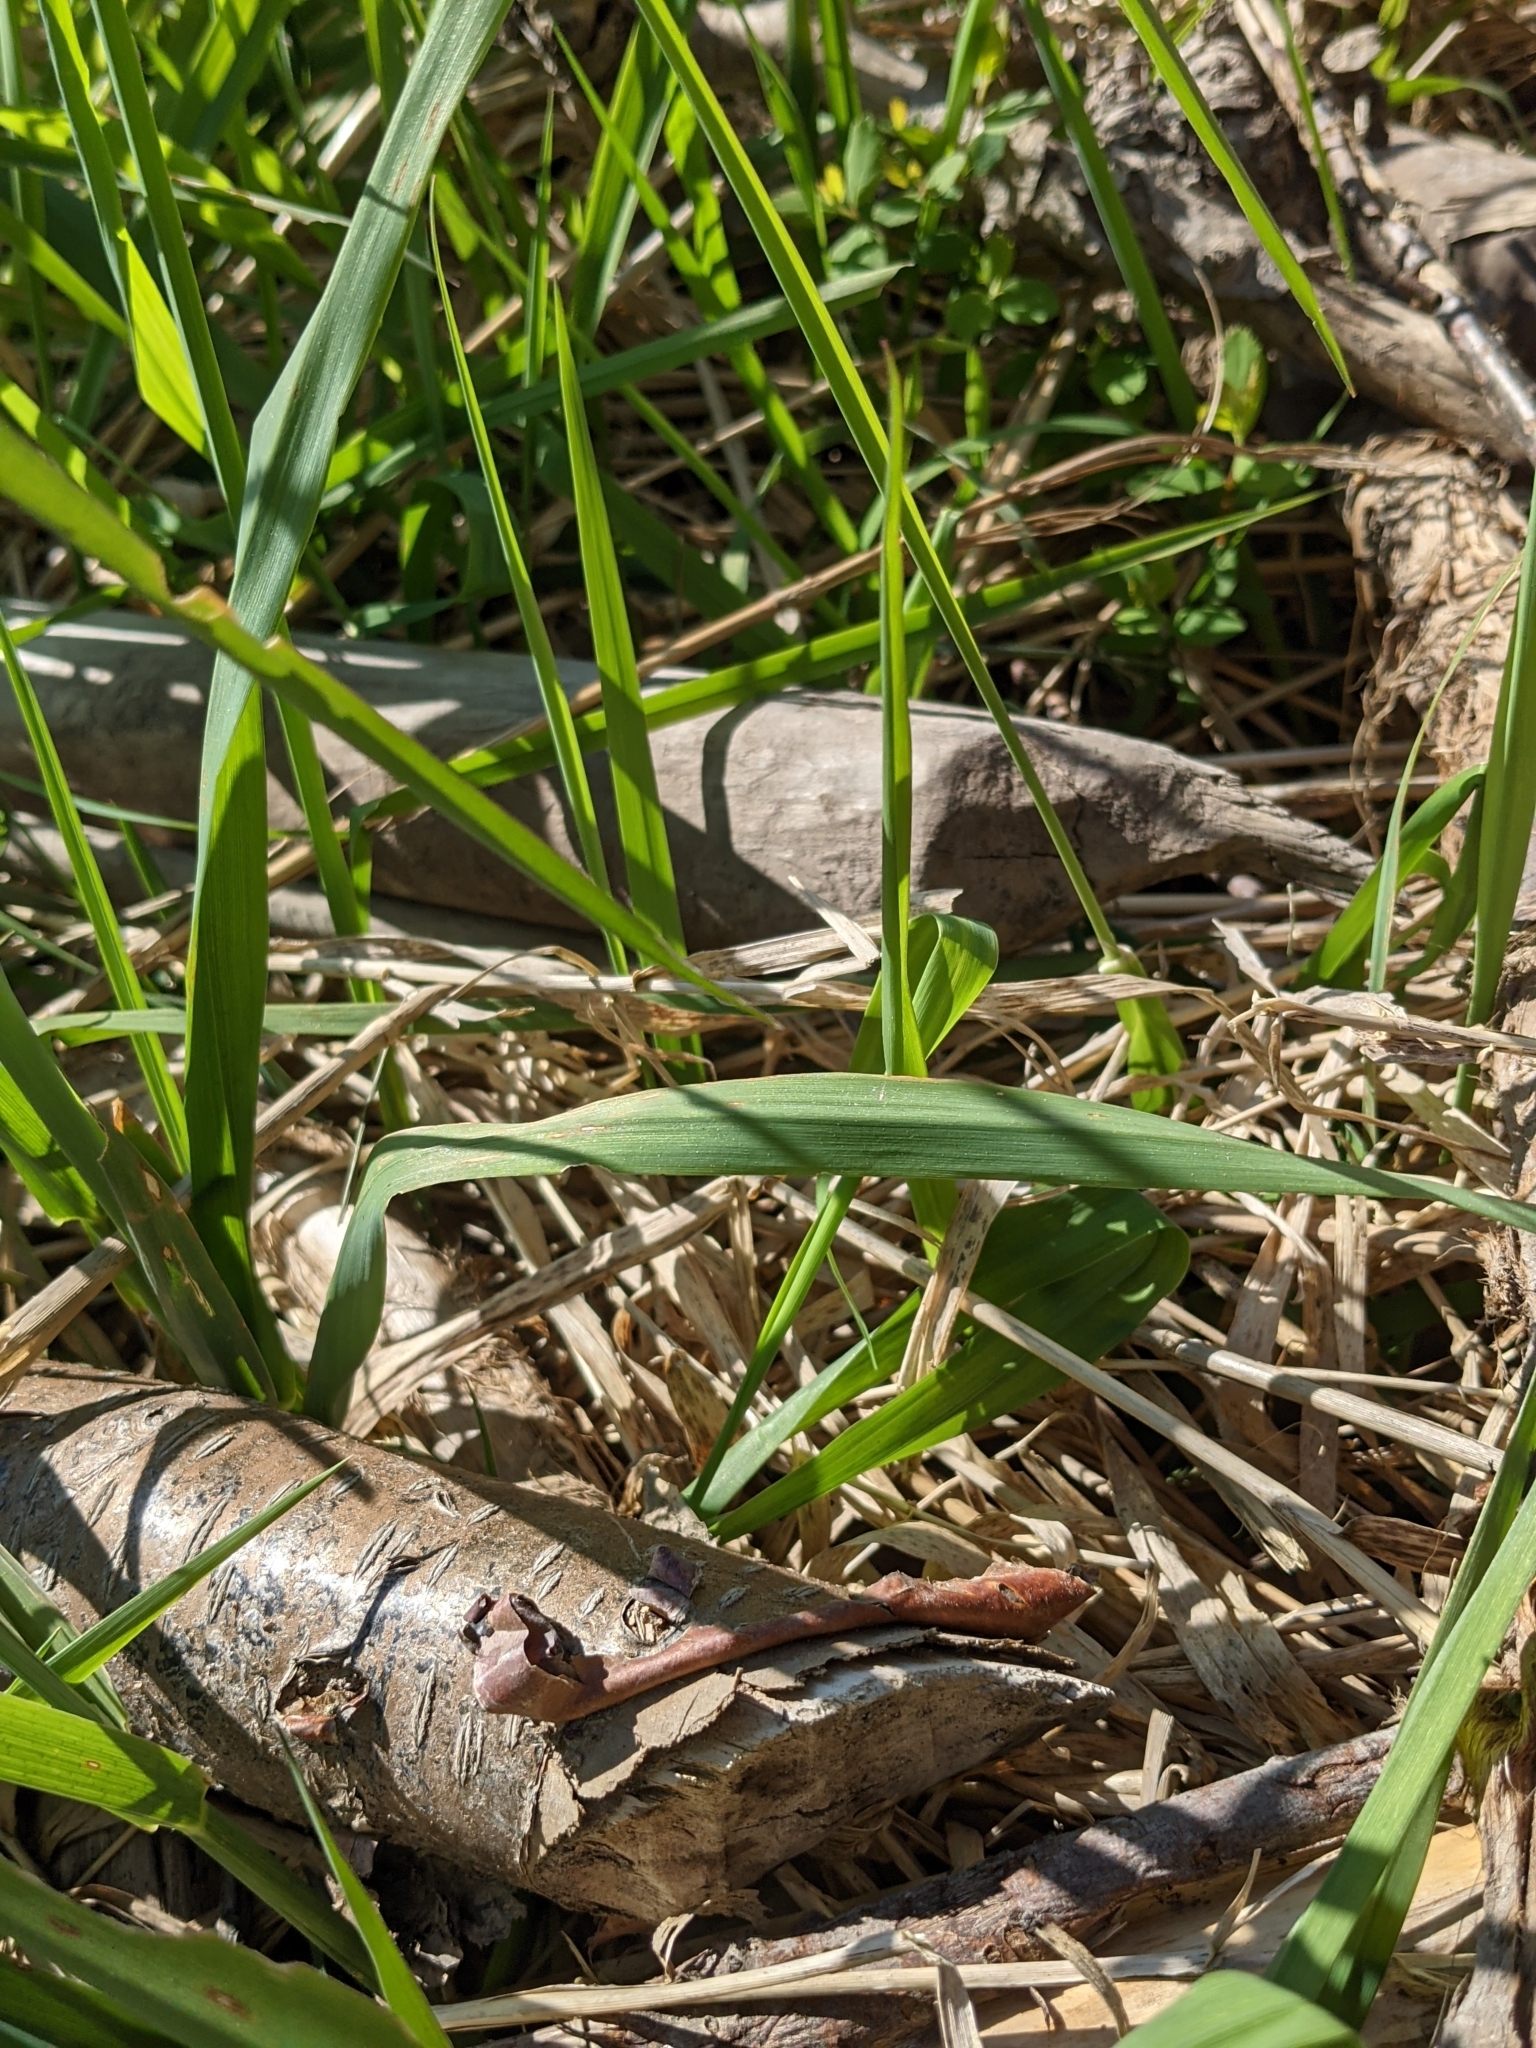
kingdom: Animalia
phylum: Chordata
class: Mammalia
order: Rodentia
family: Castoridae
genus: Castor
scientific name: Castor canadensis
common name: American beaver
